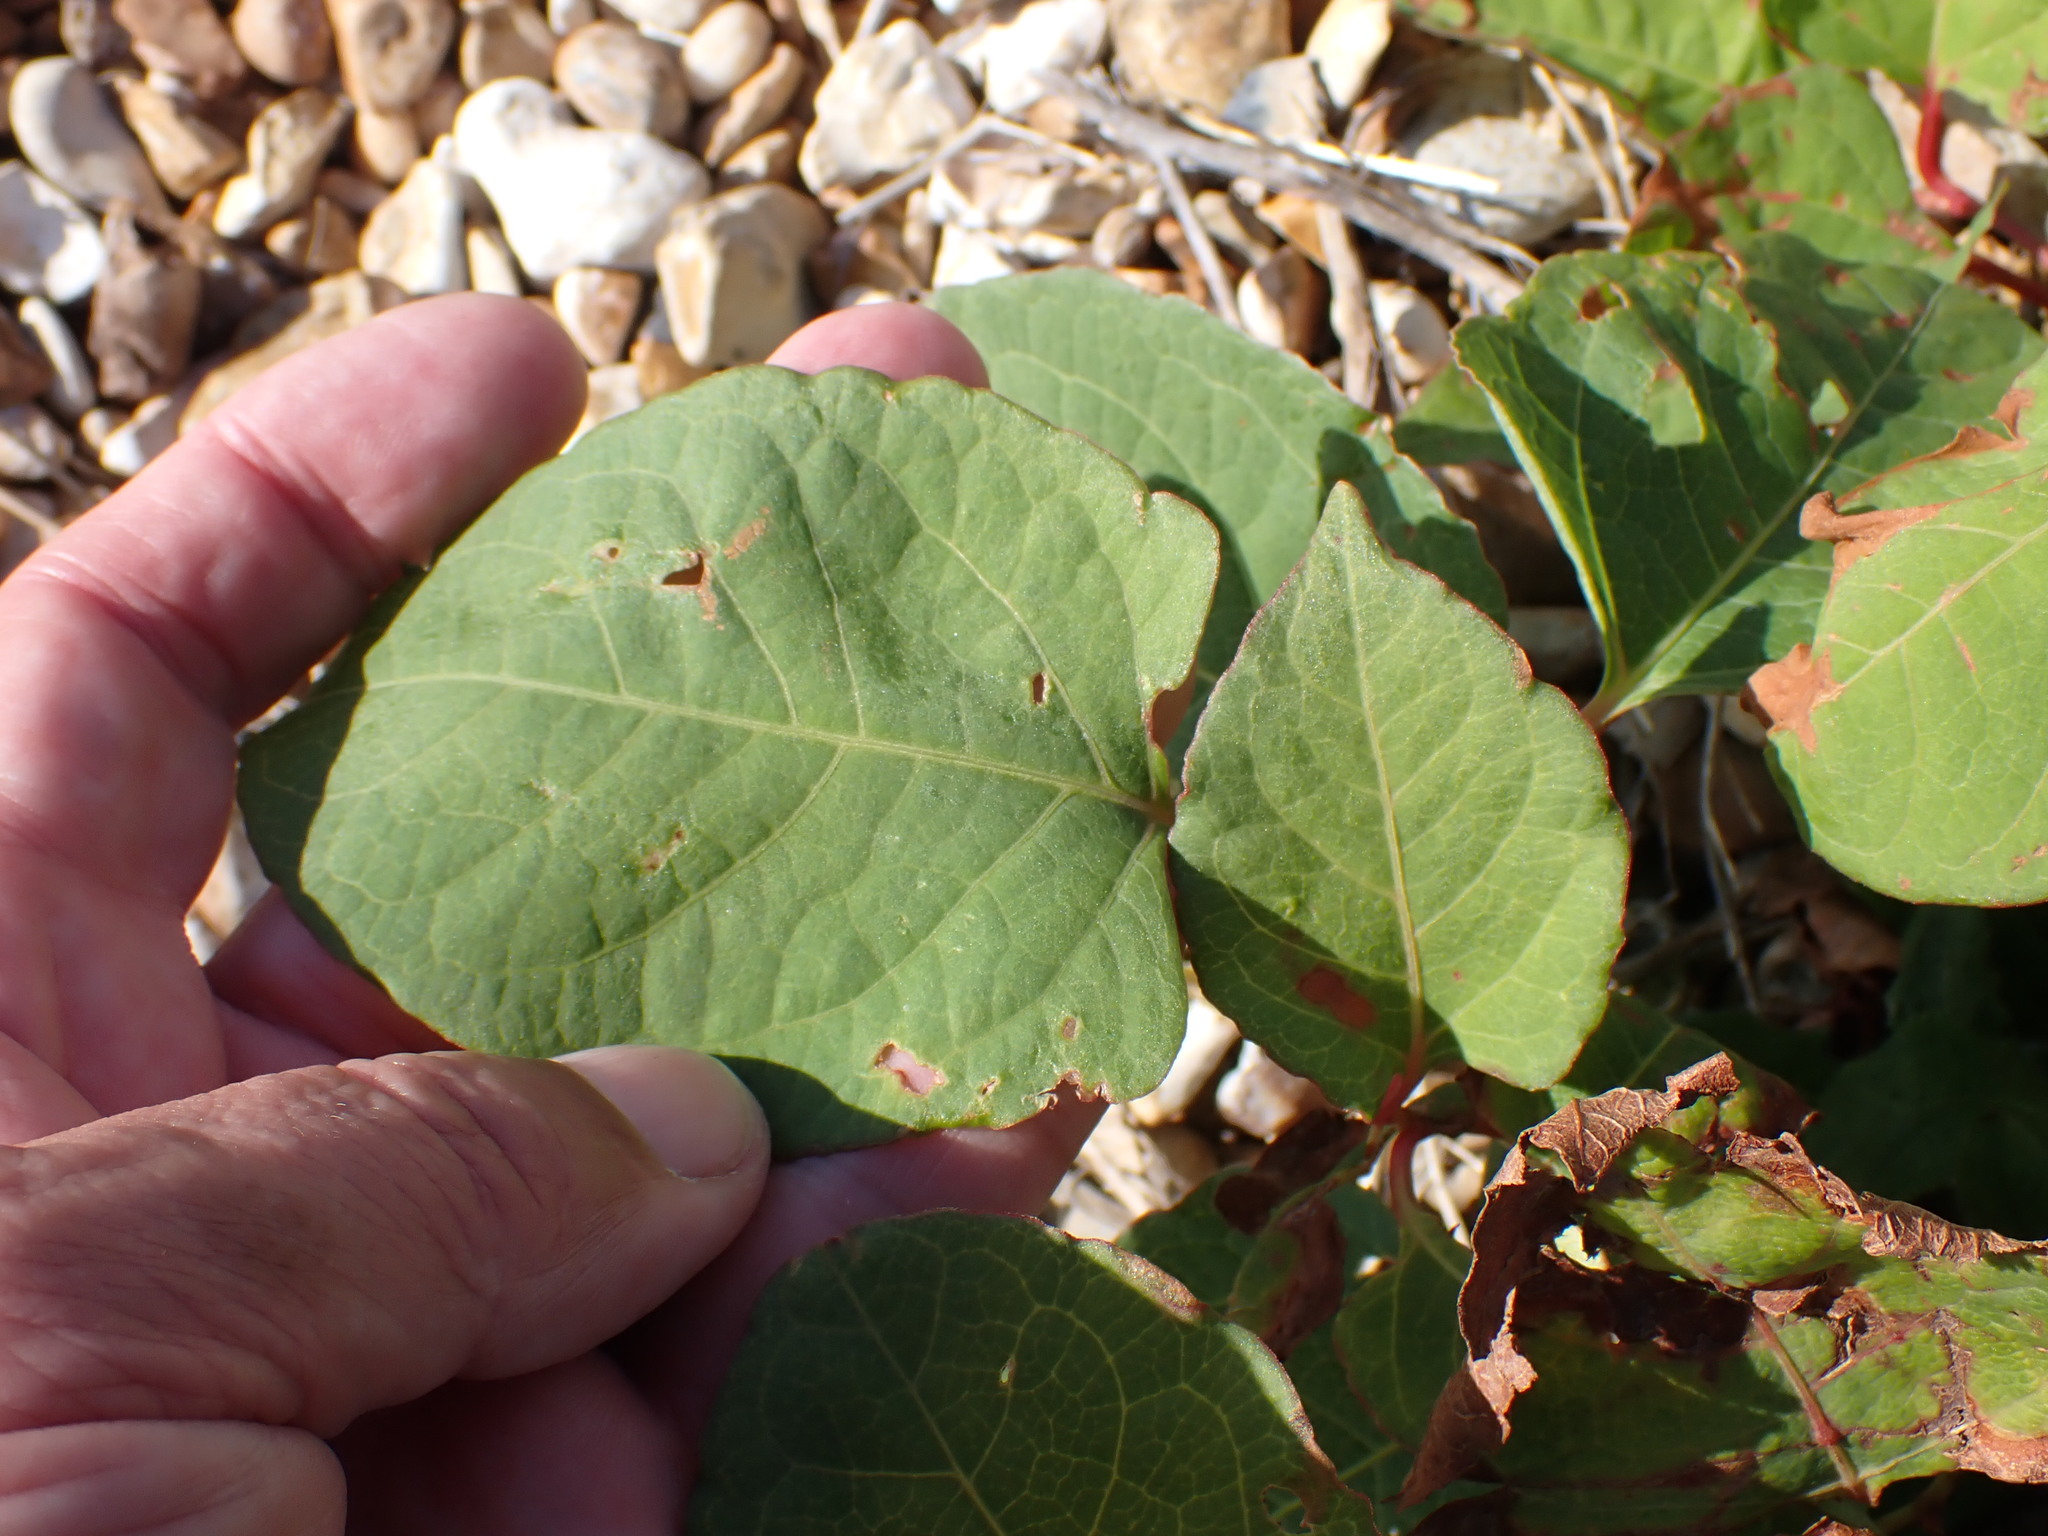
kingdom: Plantae
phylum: Tracheophyta
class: Magnoliopsida
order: Caryophyllales
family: Polygonaceae
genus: Reynoutria
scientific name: Reynoutria japonica
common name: Japanese knotweed
